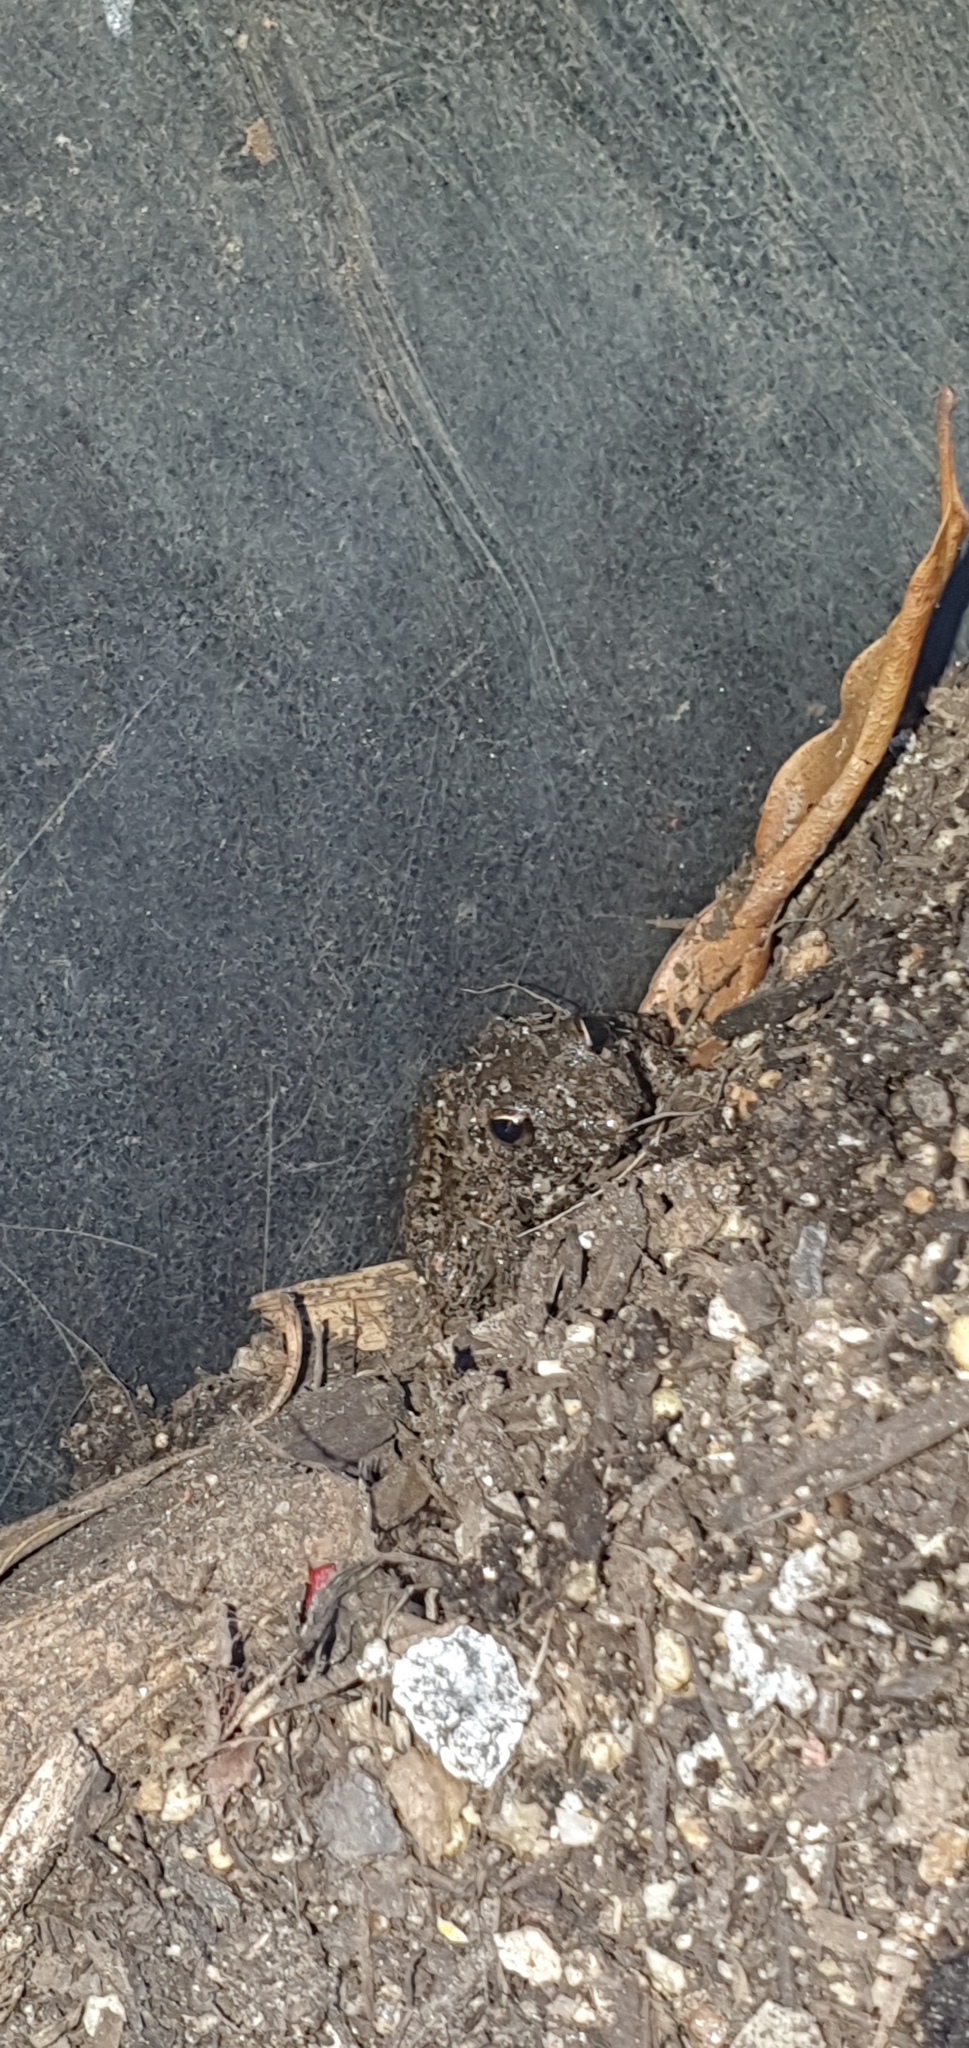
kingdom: Animalia
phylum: Chordata
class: Amphibia
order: Anura
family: Pelodryadidae
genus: Litoria
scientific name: Litoria inermis
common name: Bumpy rocket frog
